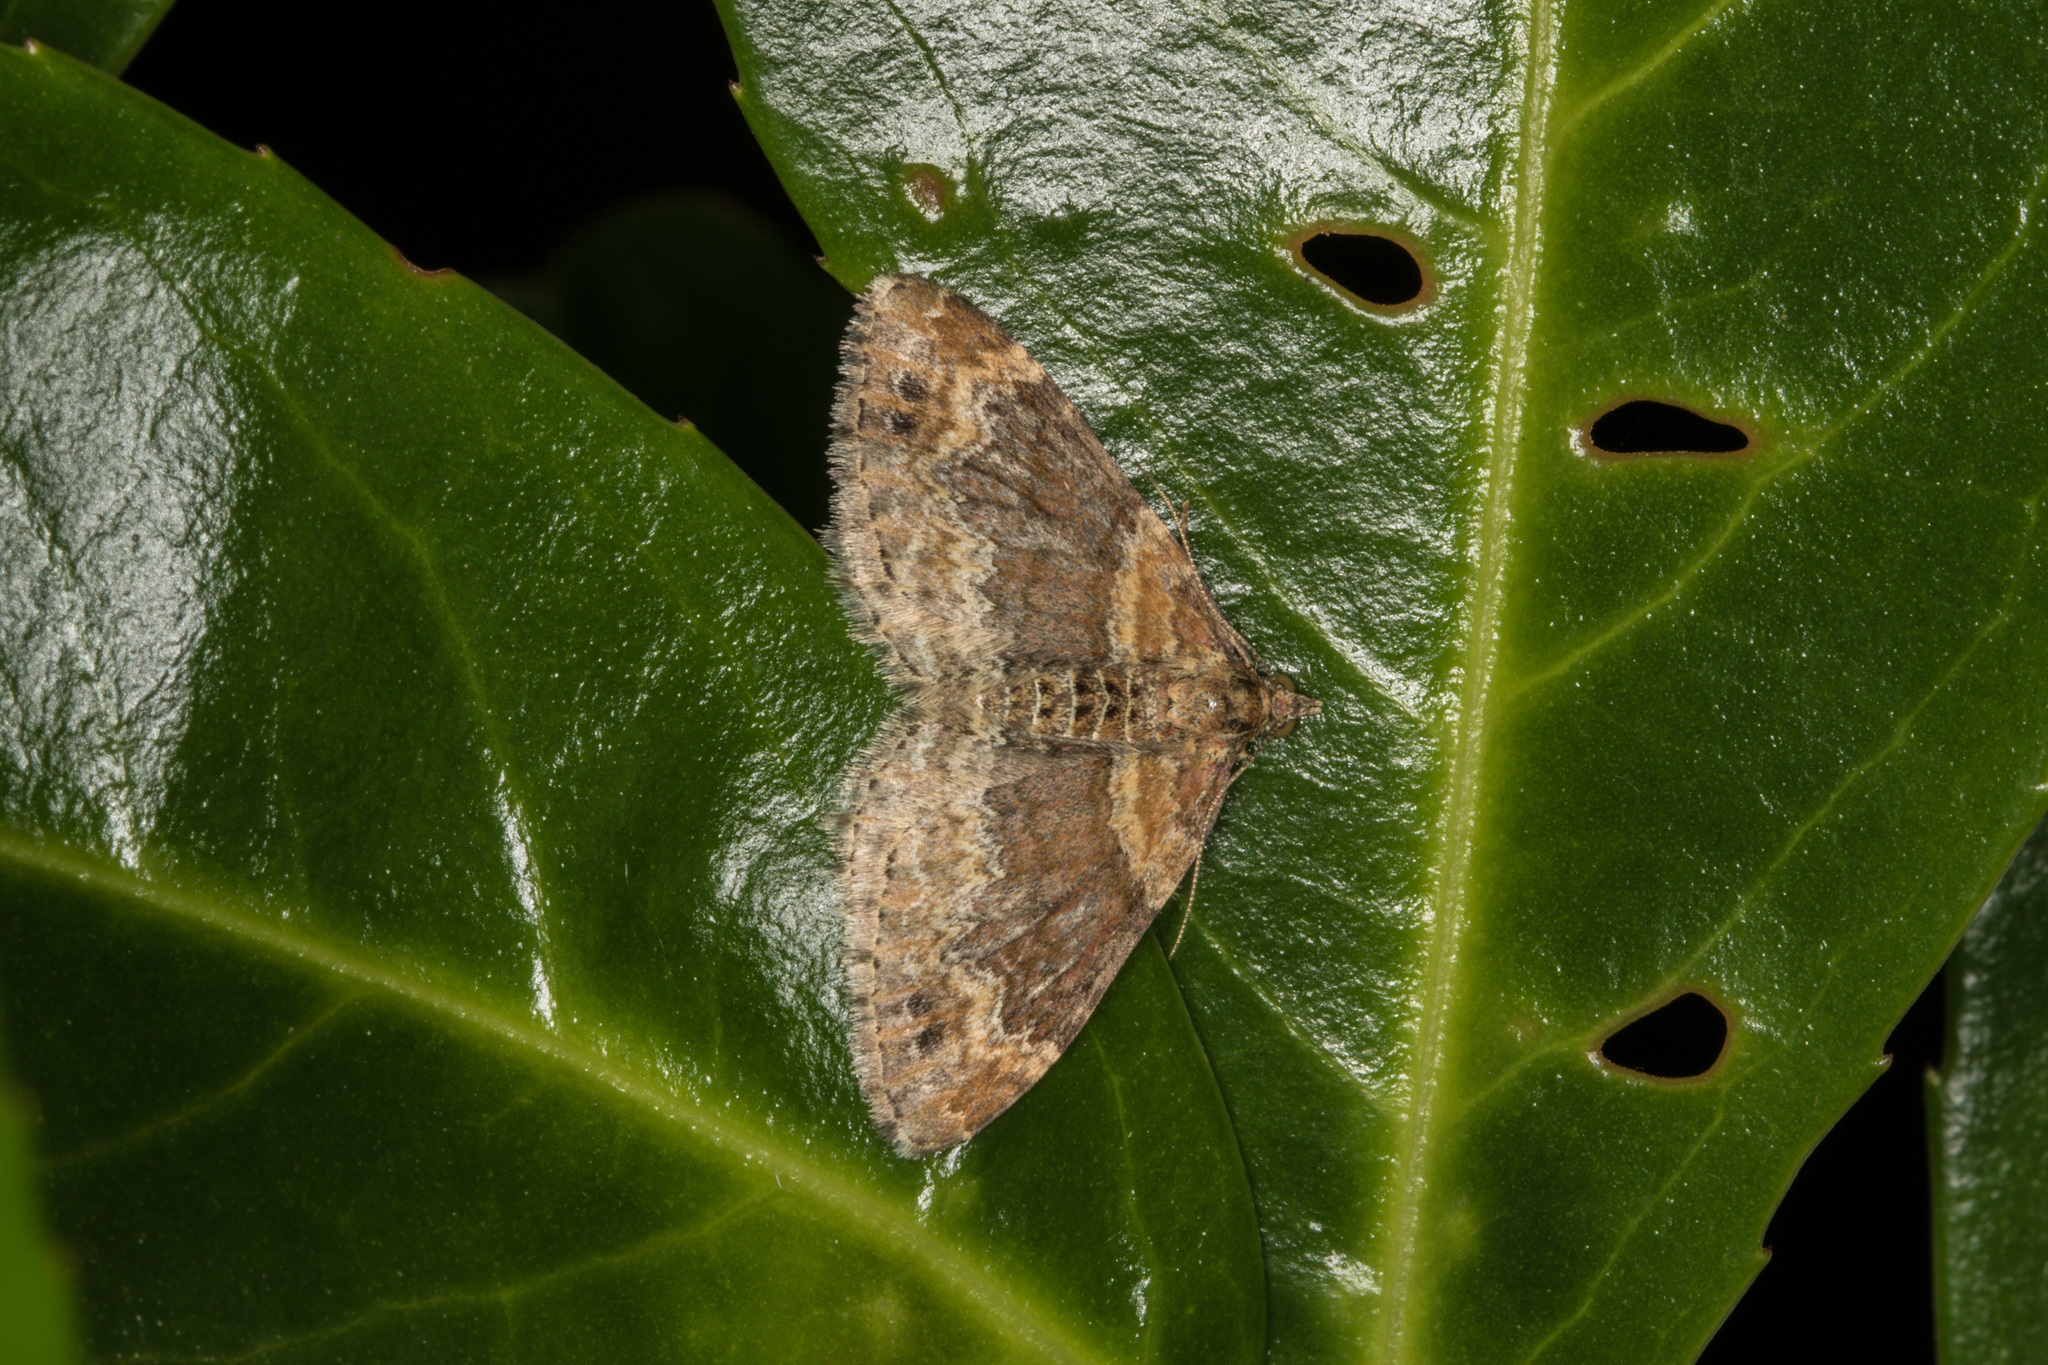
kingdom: Animalia
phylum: Arthropoda
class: Insecta
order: Lepidoptera
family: Geometridae
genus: Xanthorhoe
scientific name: Xanthorhoe spadicearia
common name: Red twin-spot carpet
